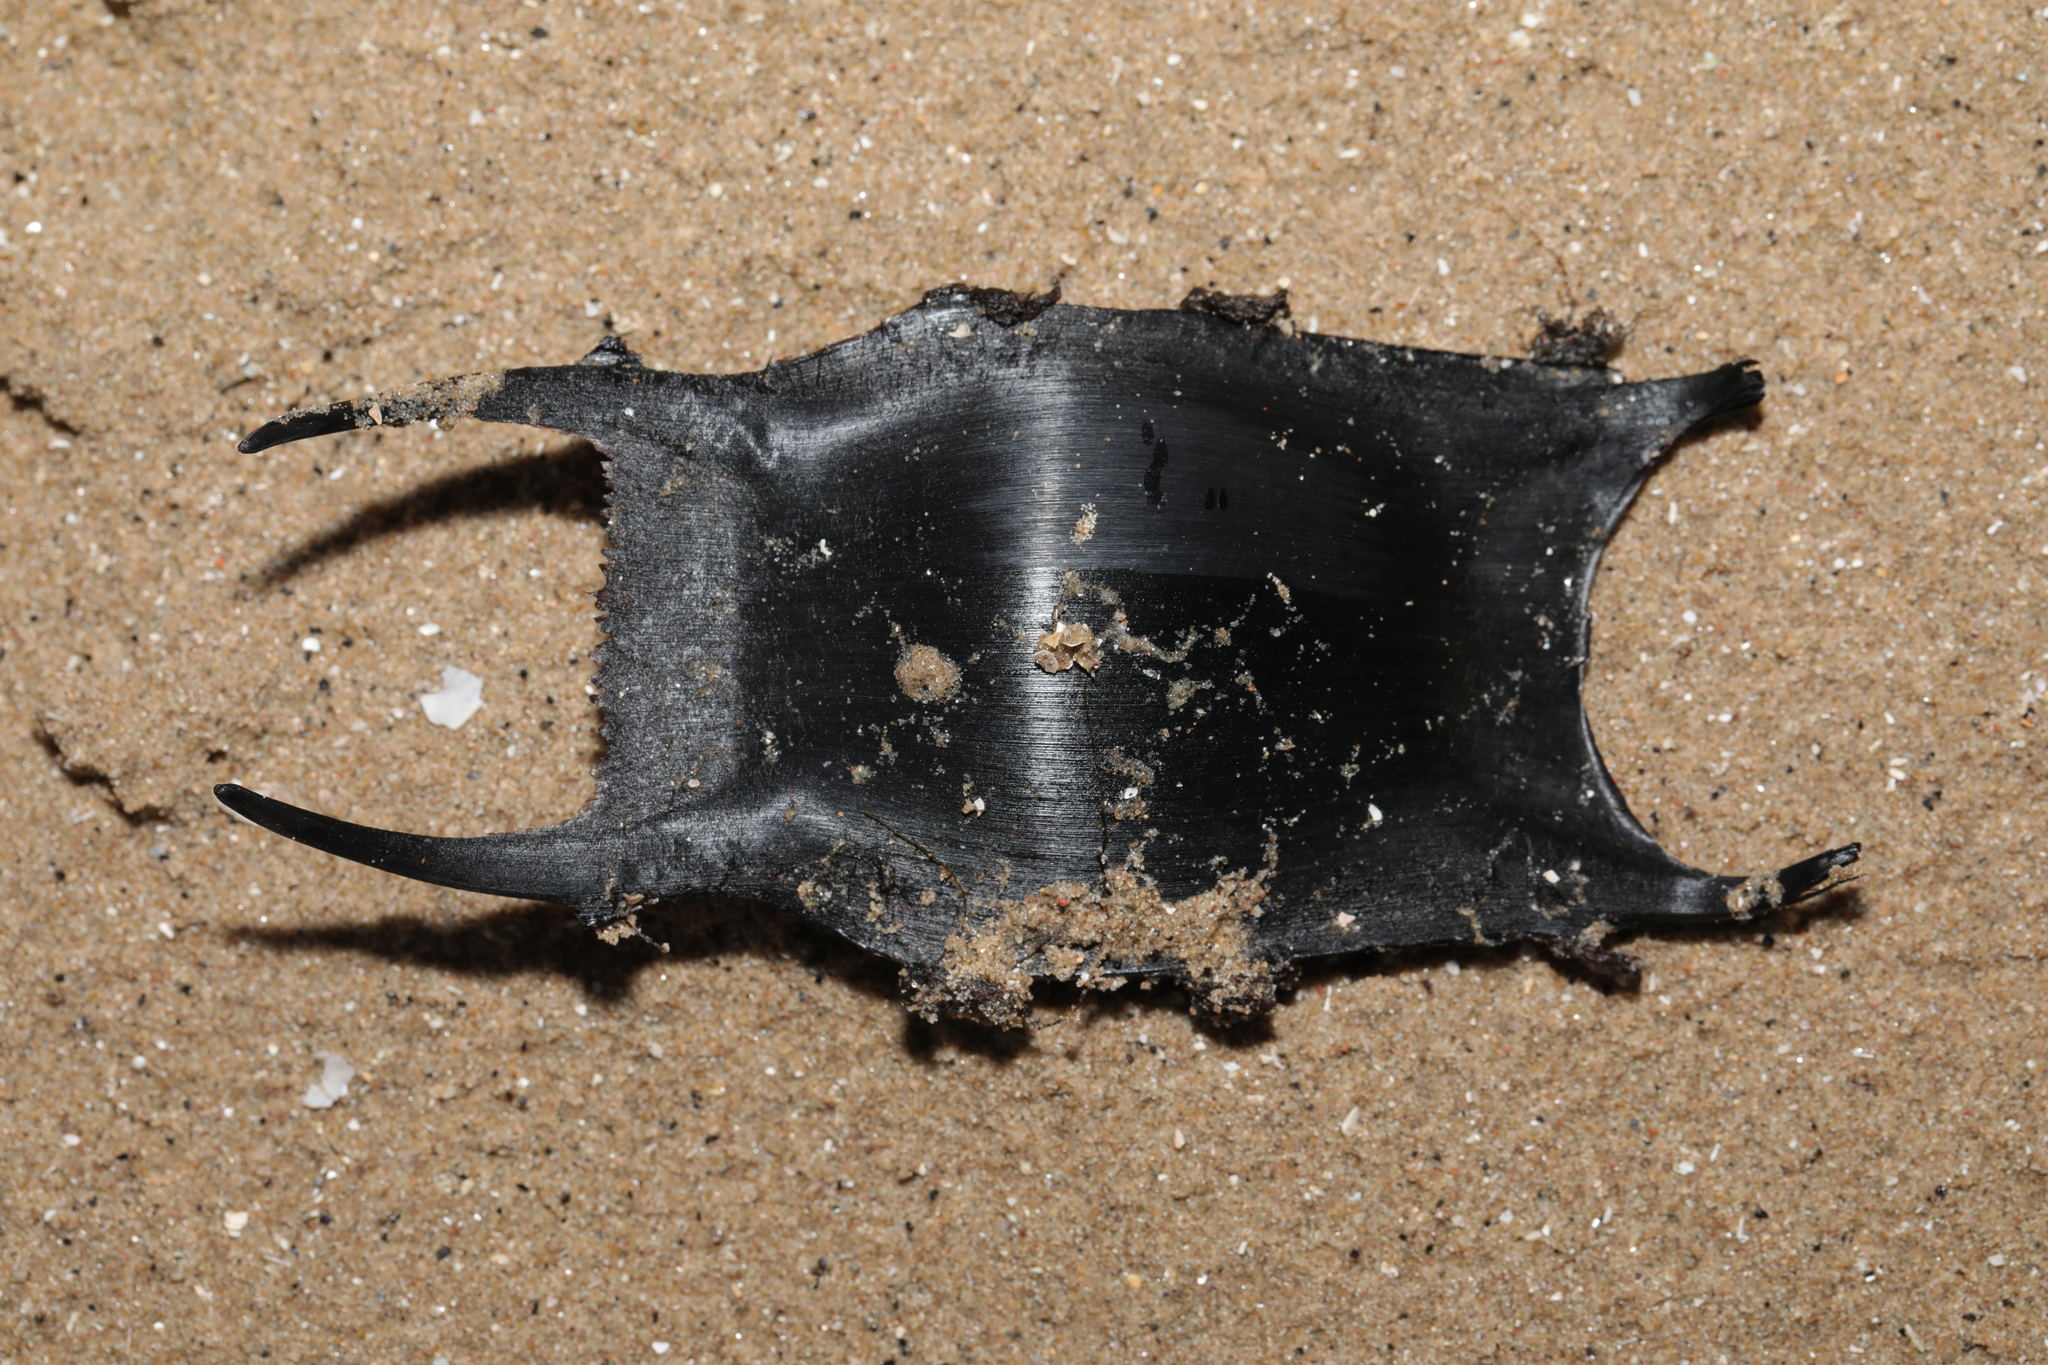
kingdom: Animalia
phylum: Chordata
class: Elasmobranchii
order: Rajiformes
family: Rajidae
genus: Raja
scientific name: Raja clavata
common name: Thornback ray
